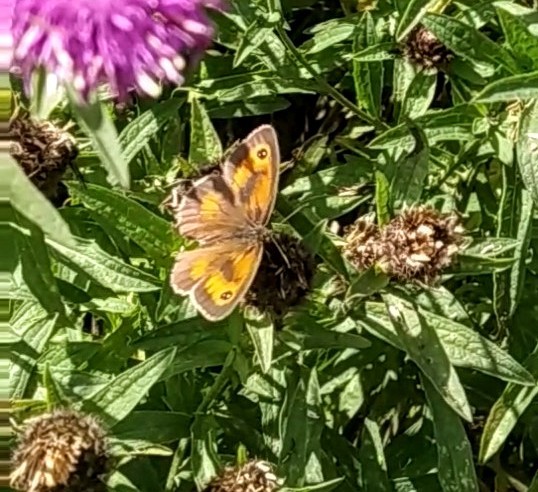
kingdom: Animalia
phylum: Arthropoda
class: Insecta
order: Lepidoptera
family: Nymphalidae
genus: Pyronia
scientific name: Pyronia tithonus
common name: Gatekeeper
